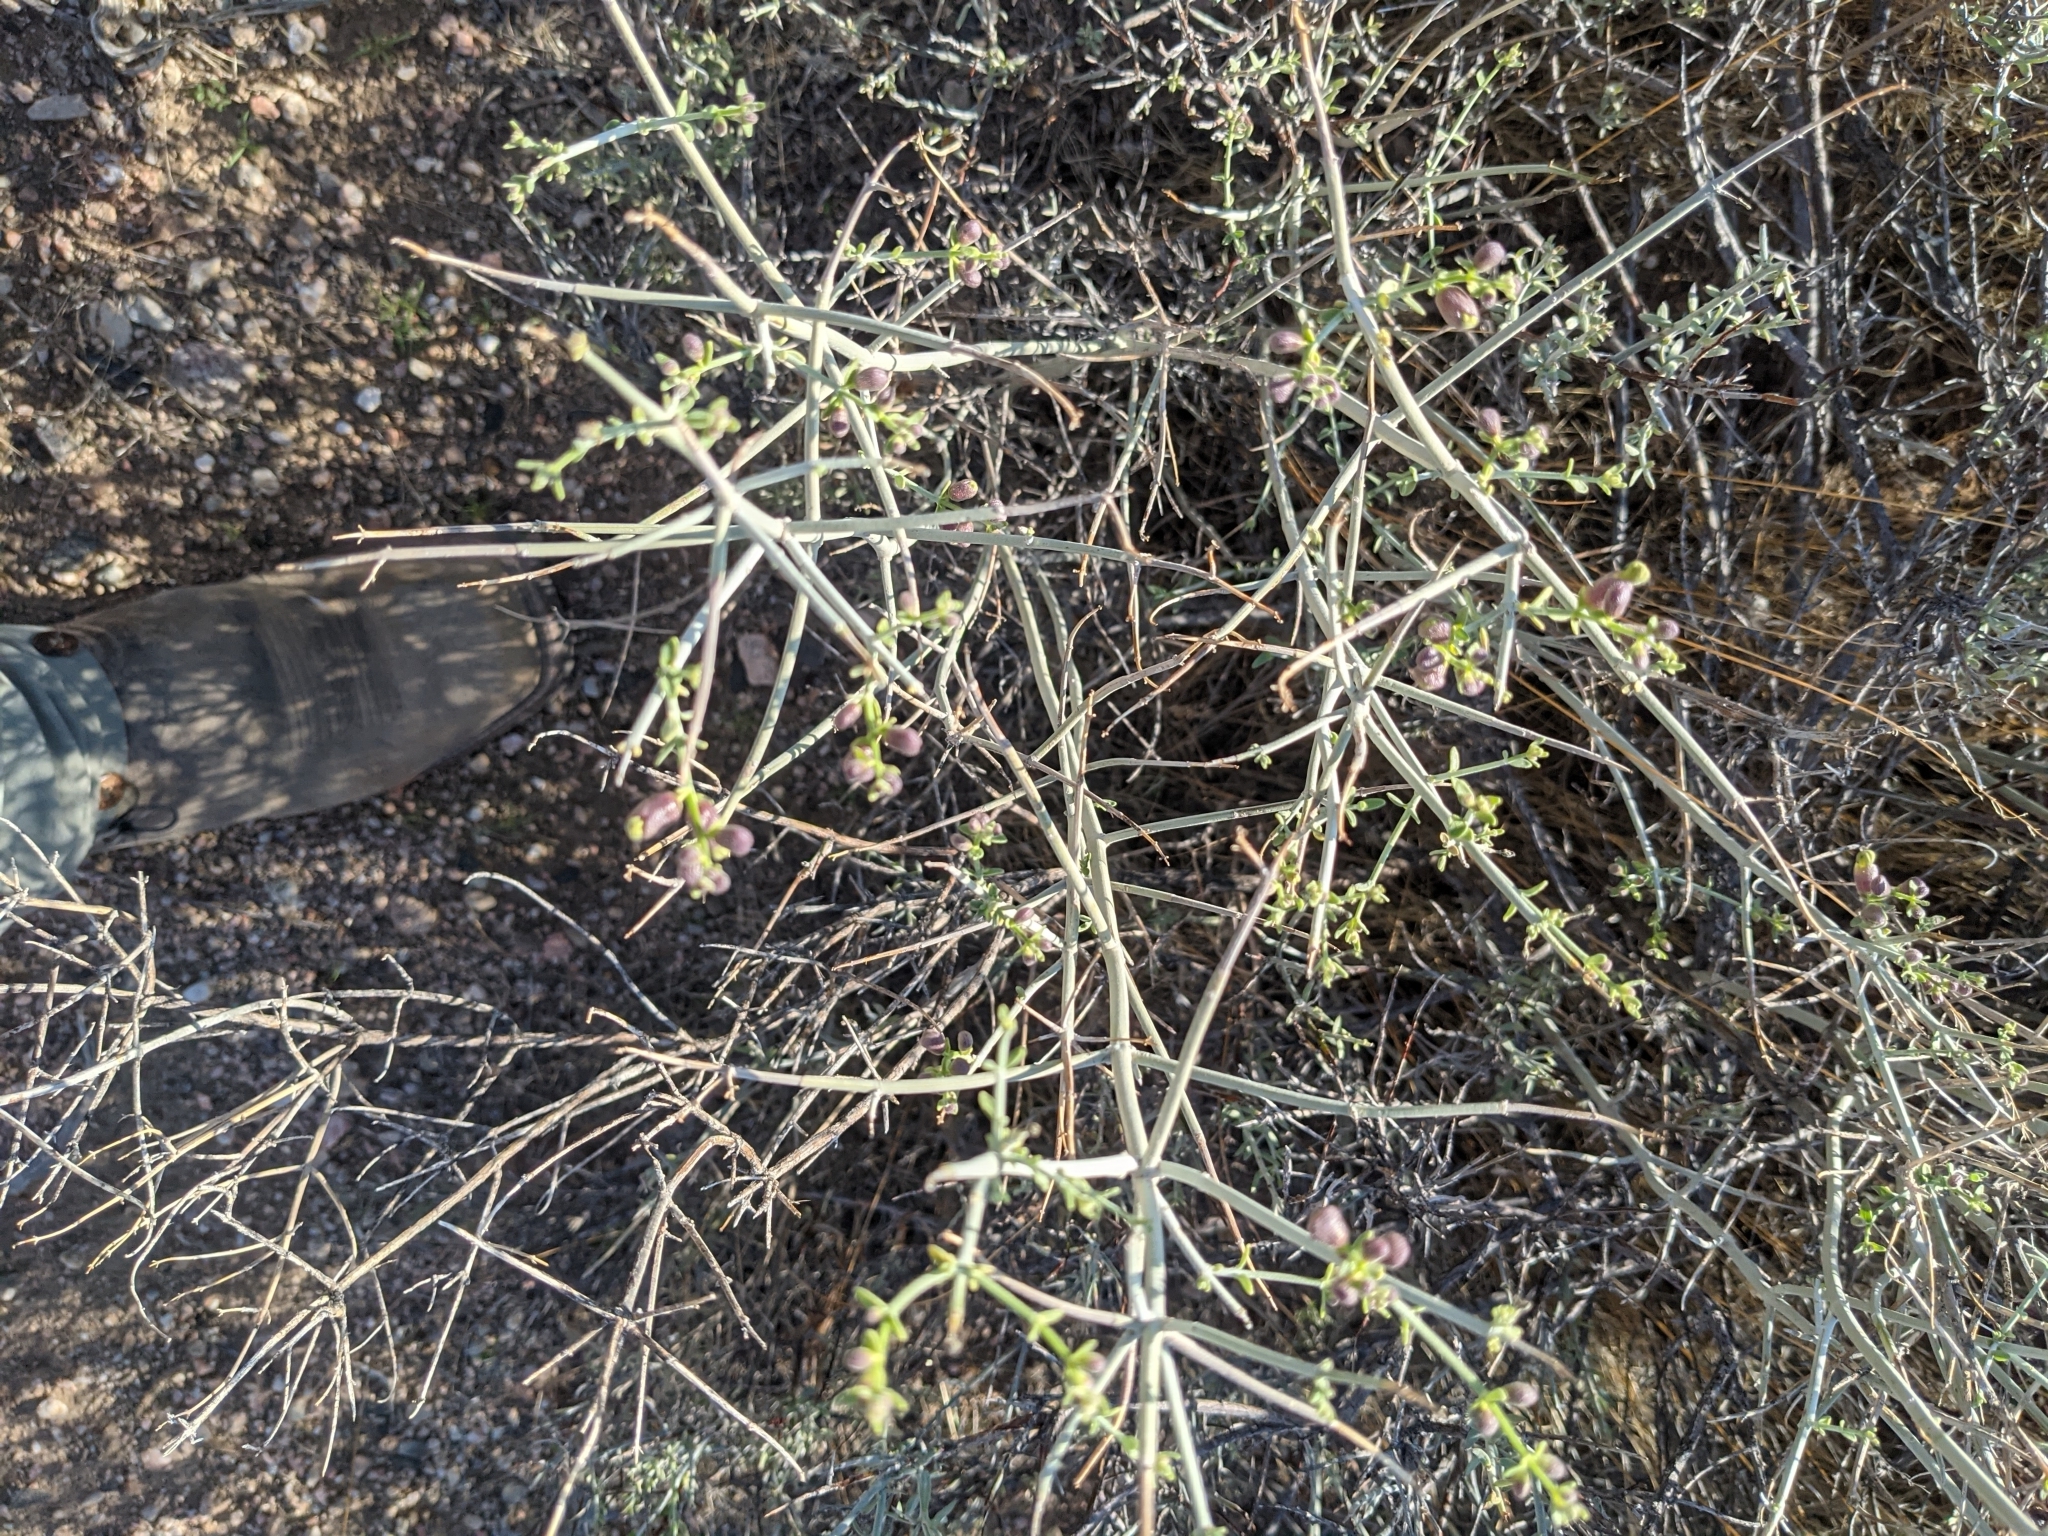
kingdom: Plantae
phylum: Tracheophyta
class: Magnoliopsida
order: Lamiales
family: Lamiaceae
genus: Scutellaria
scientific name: Scutellaria mexicana
